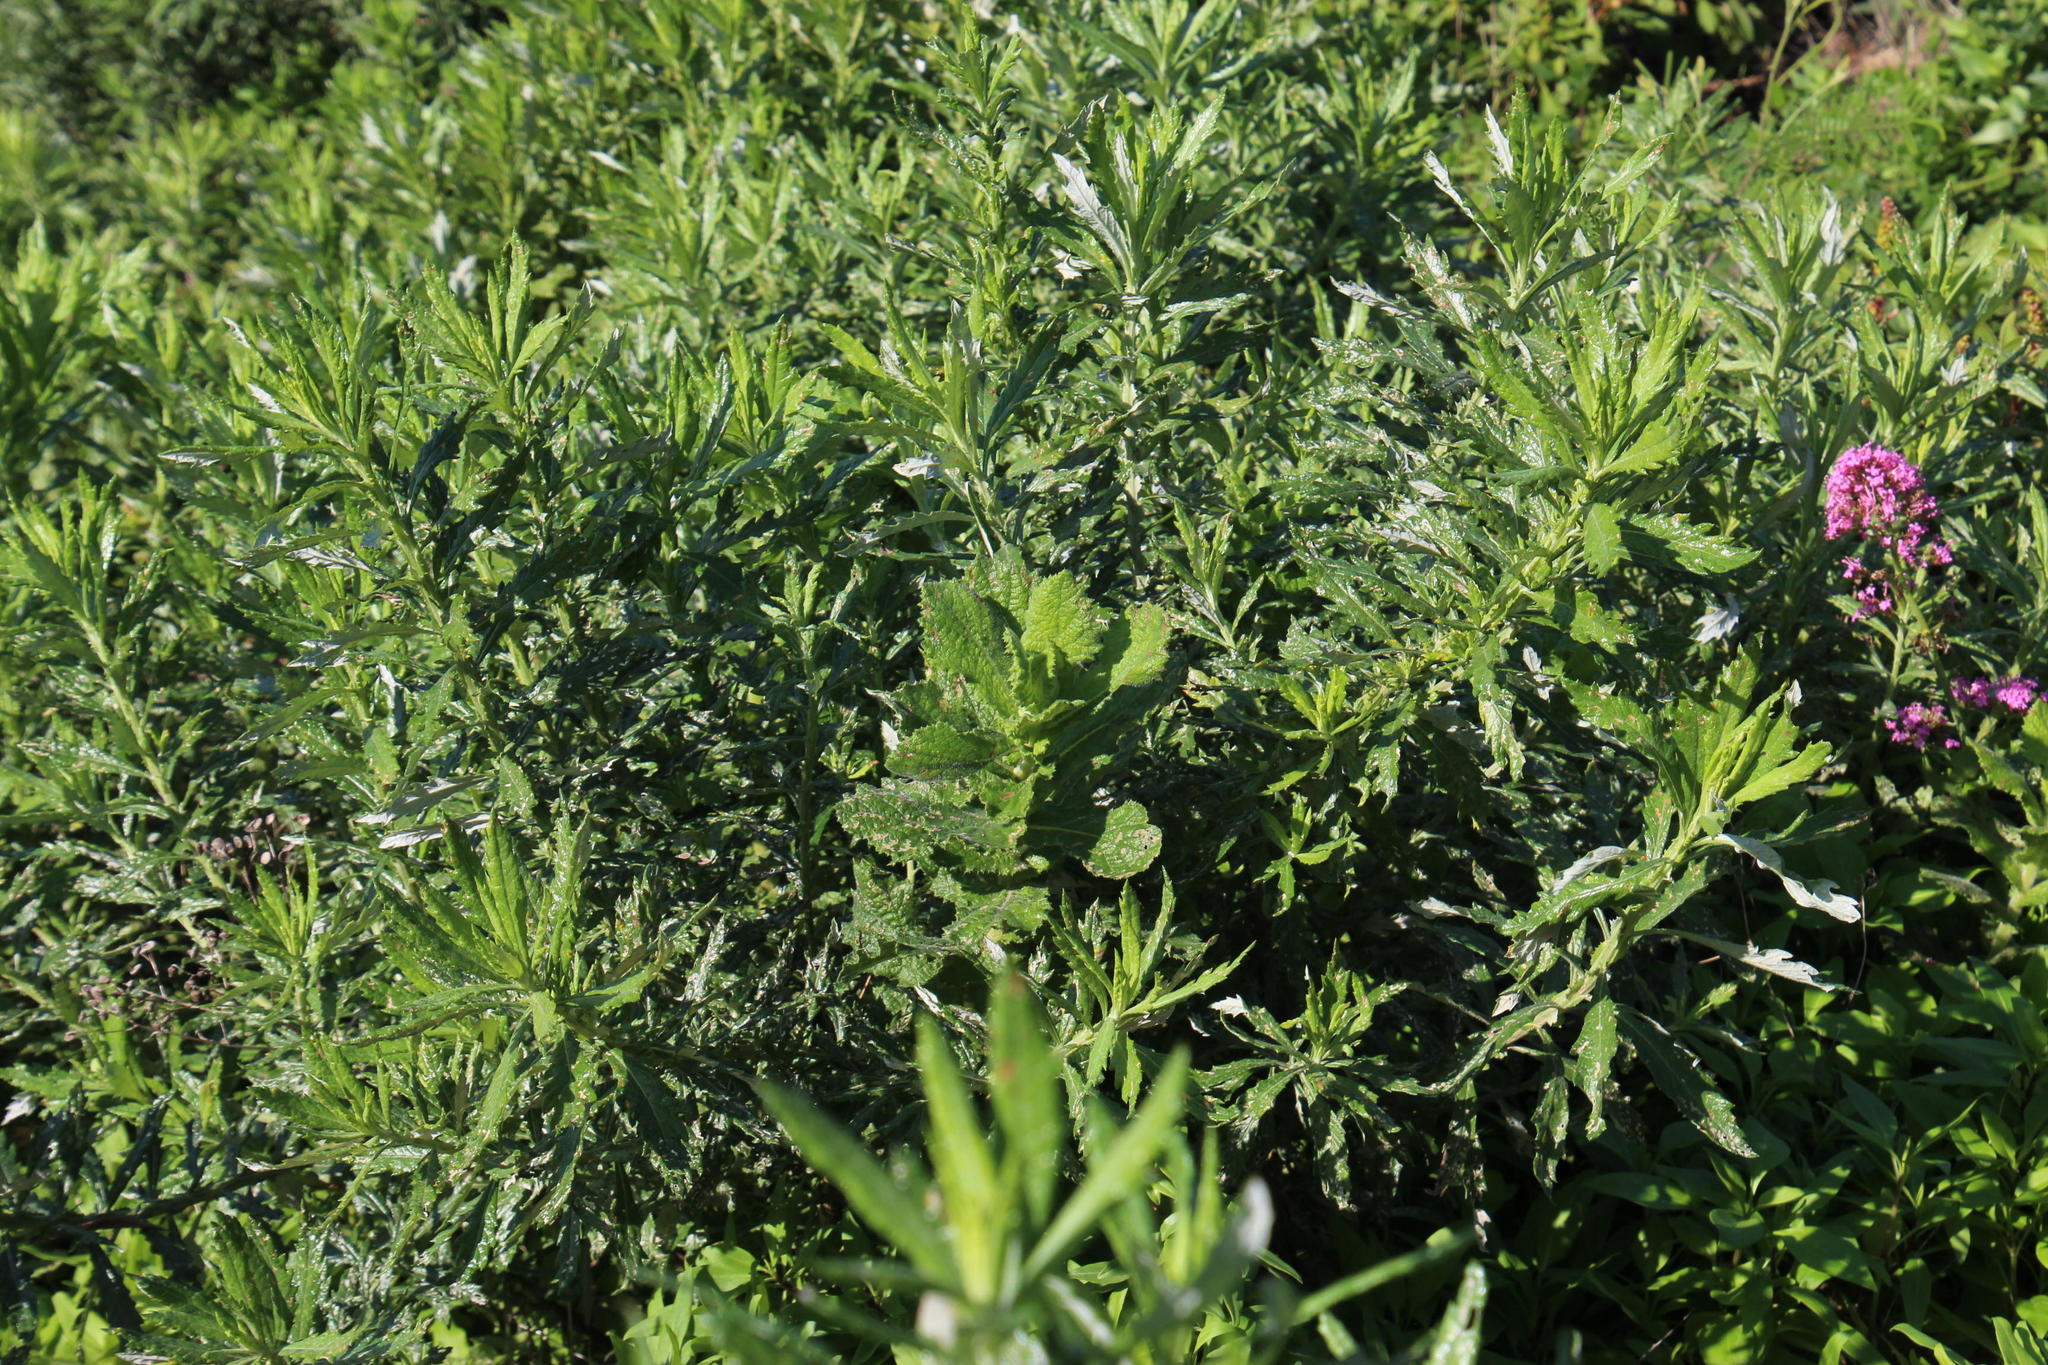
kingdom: Plantae
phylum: Tracheophyta
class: Magnoliopsida
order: Asterales
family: Asteraceae
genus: Senecio
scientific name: Senecio pterophorus
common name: Shoddy ragwort
